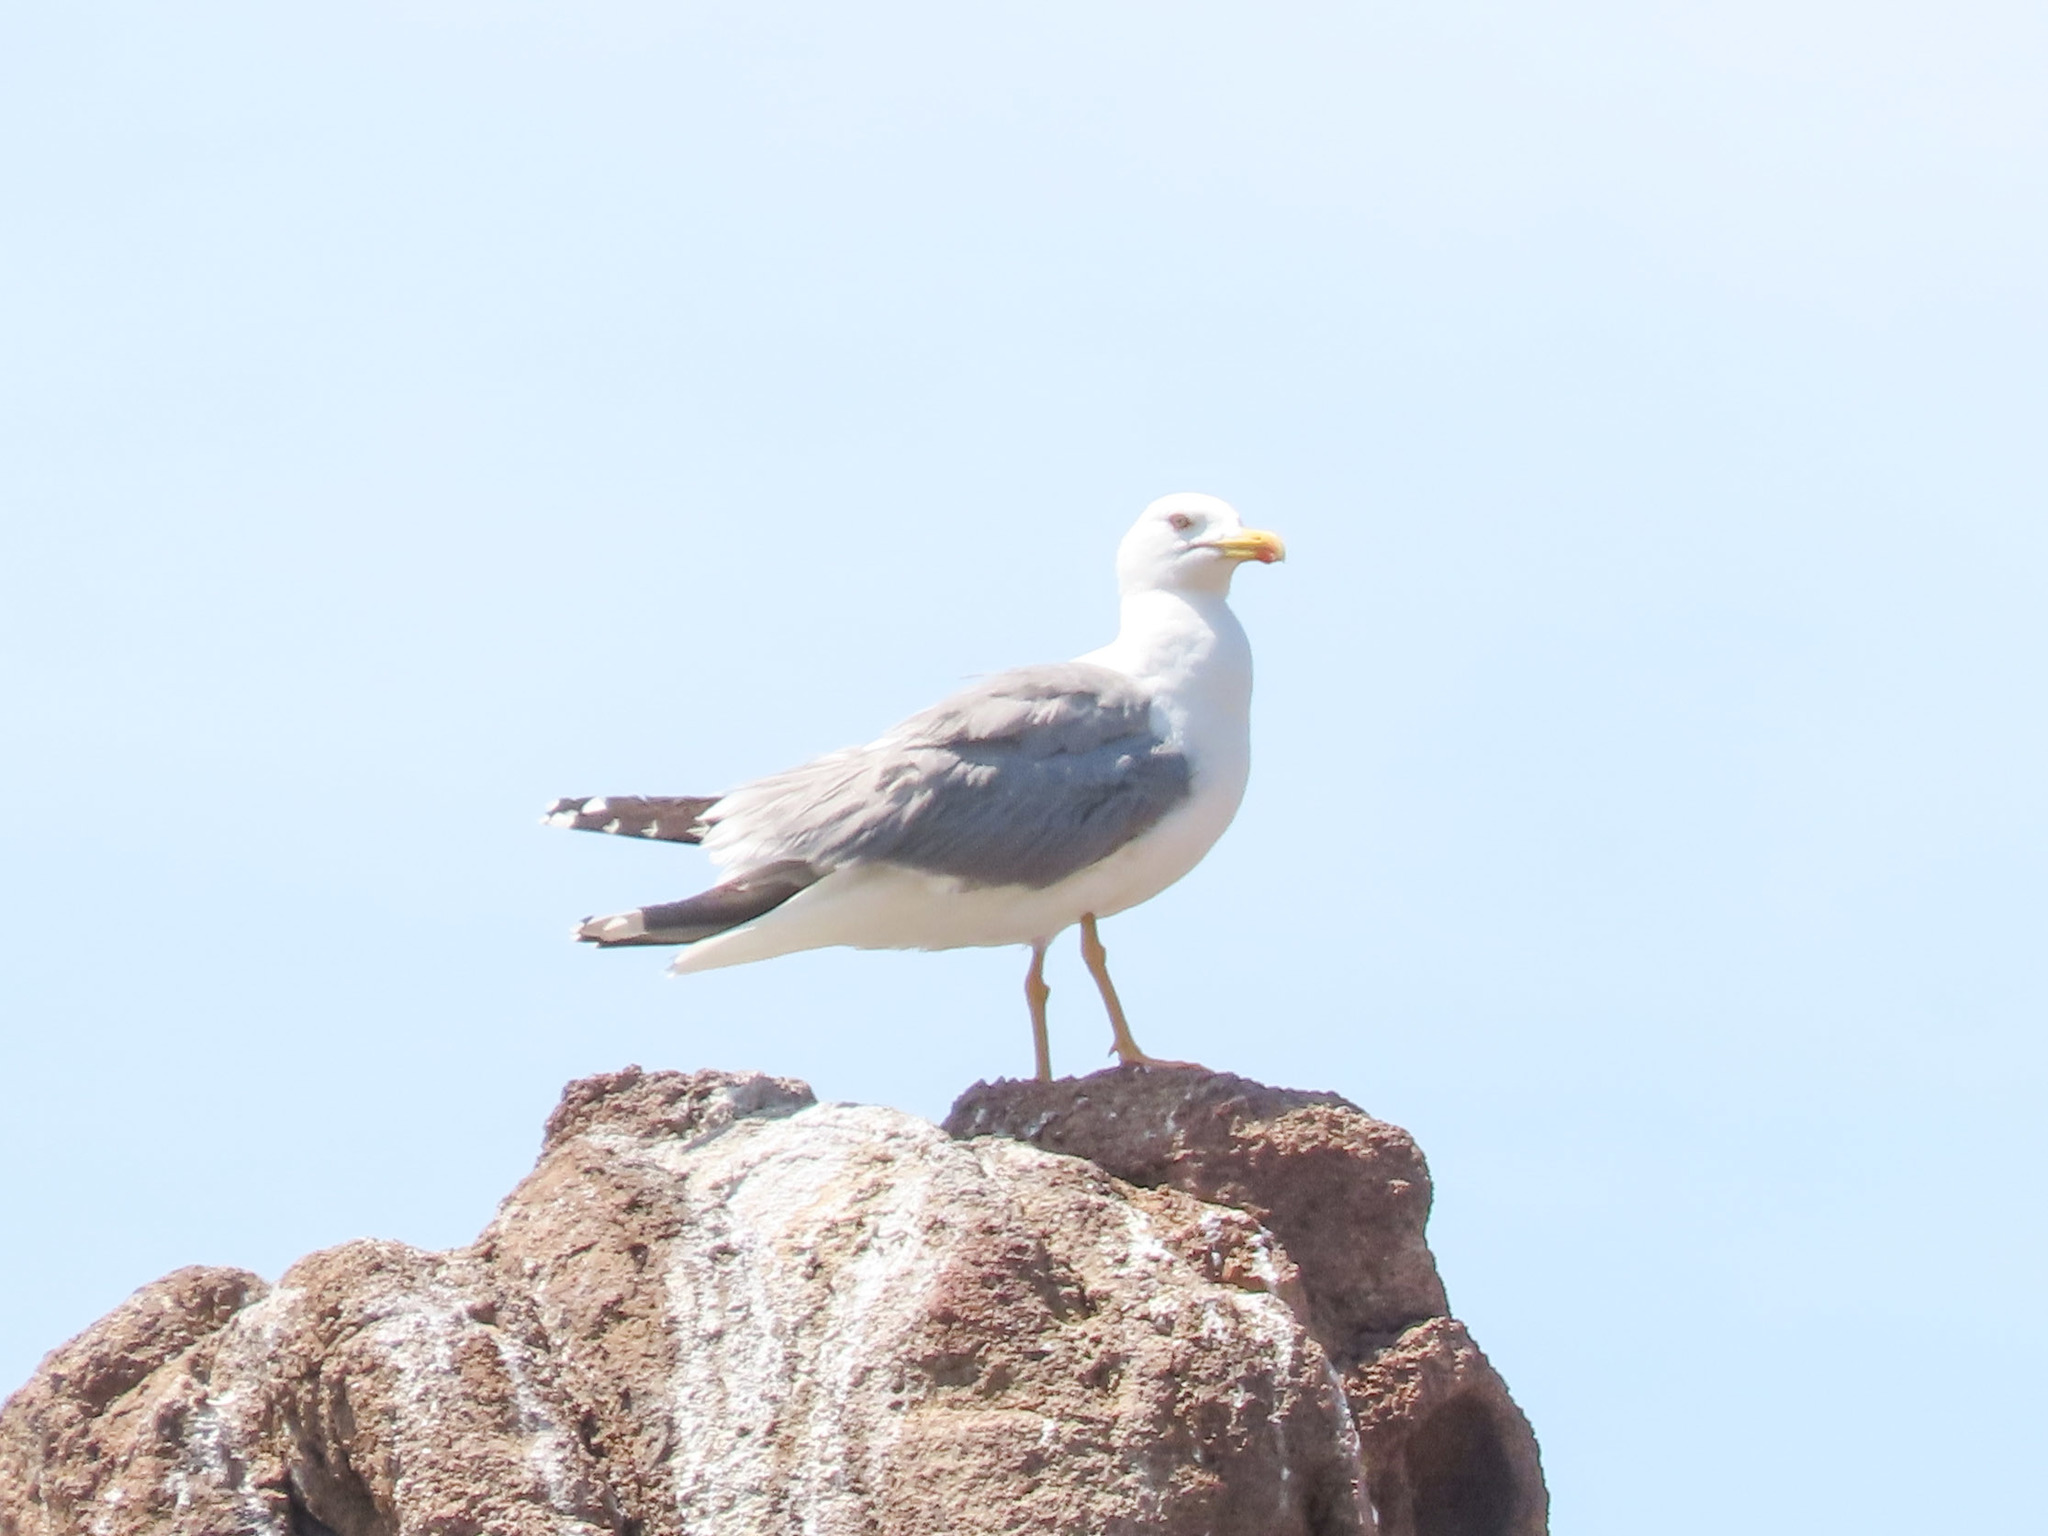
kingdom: Animalia
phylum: Chordata
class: Aves
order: Charadriiformes
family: Laridae
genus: Larus
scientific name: Larus michahellis
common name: Yellow-legged gull
